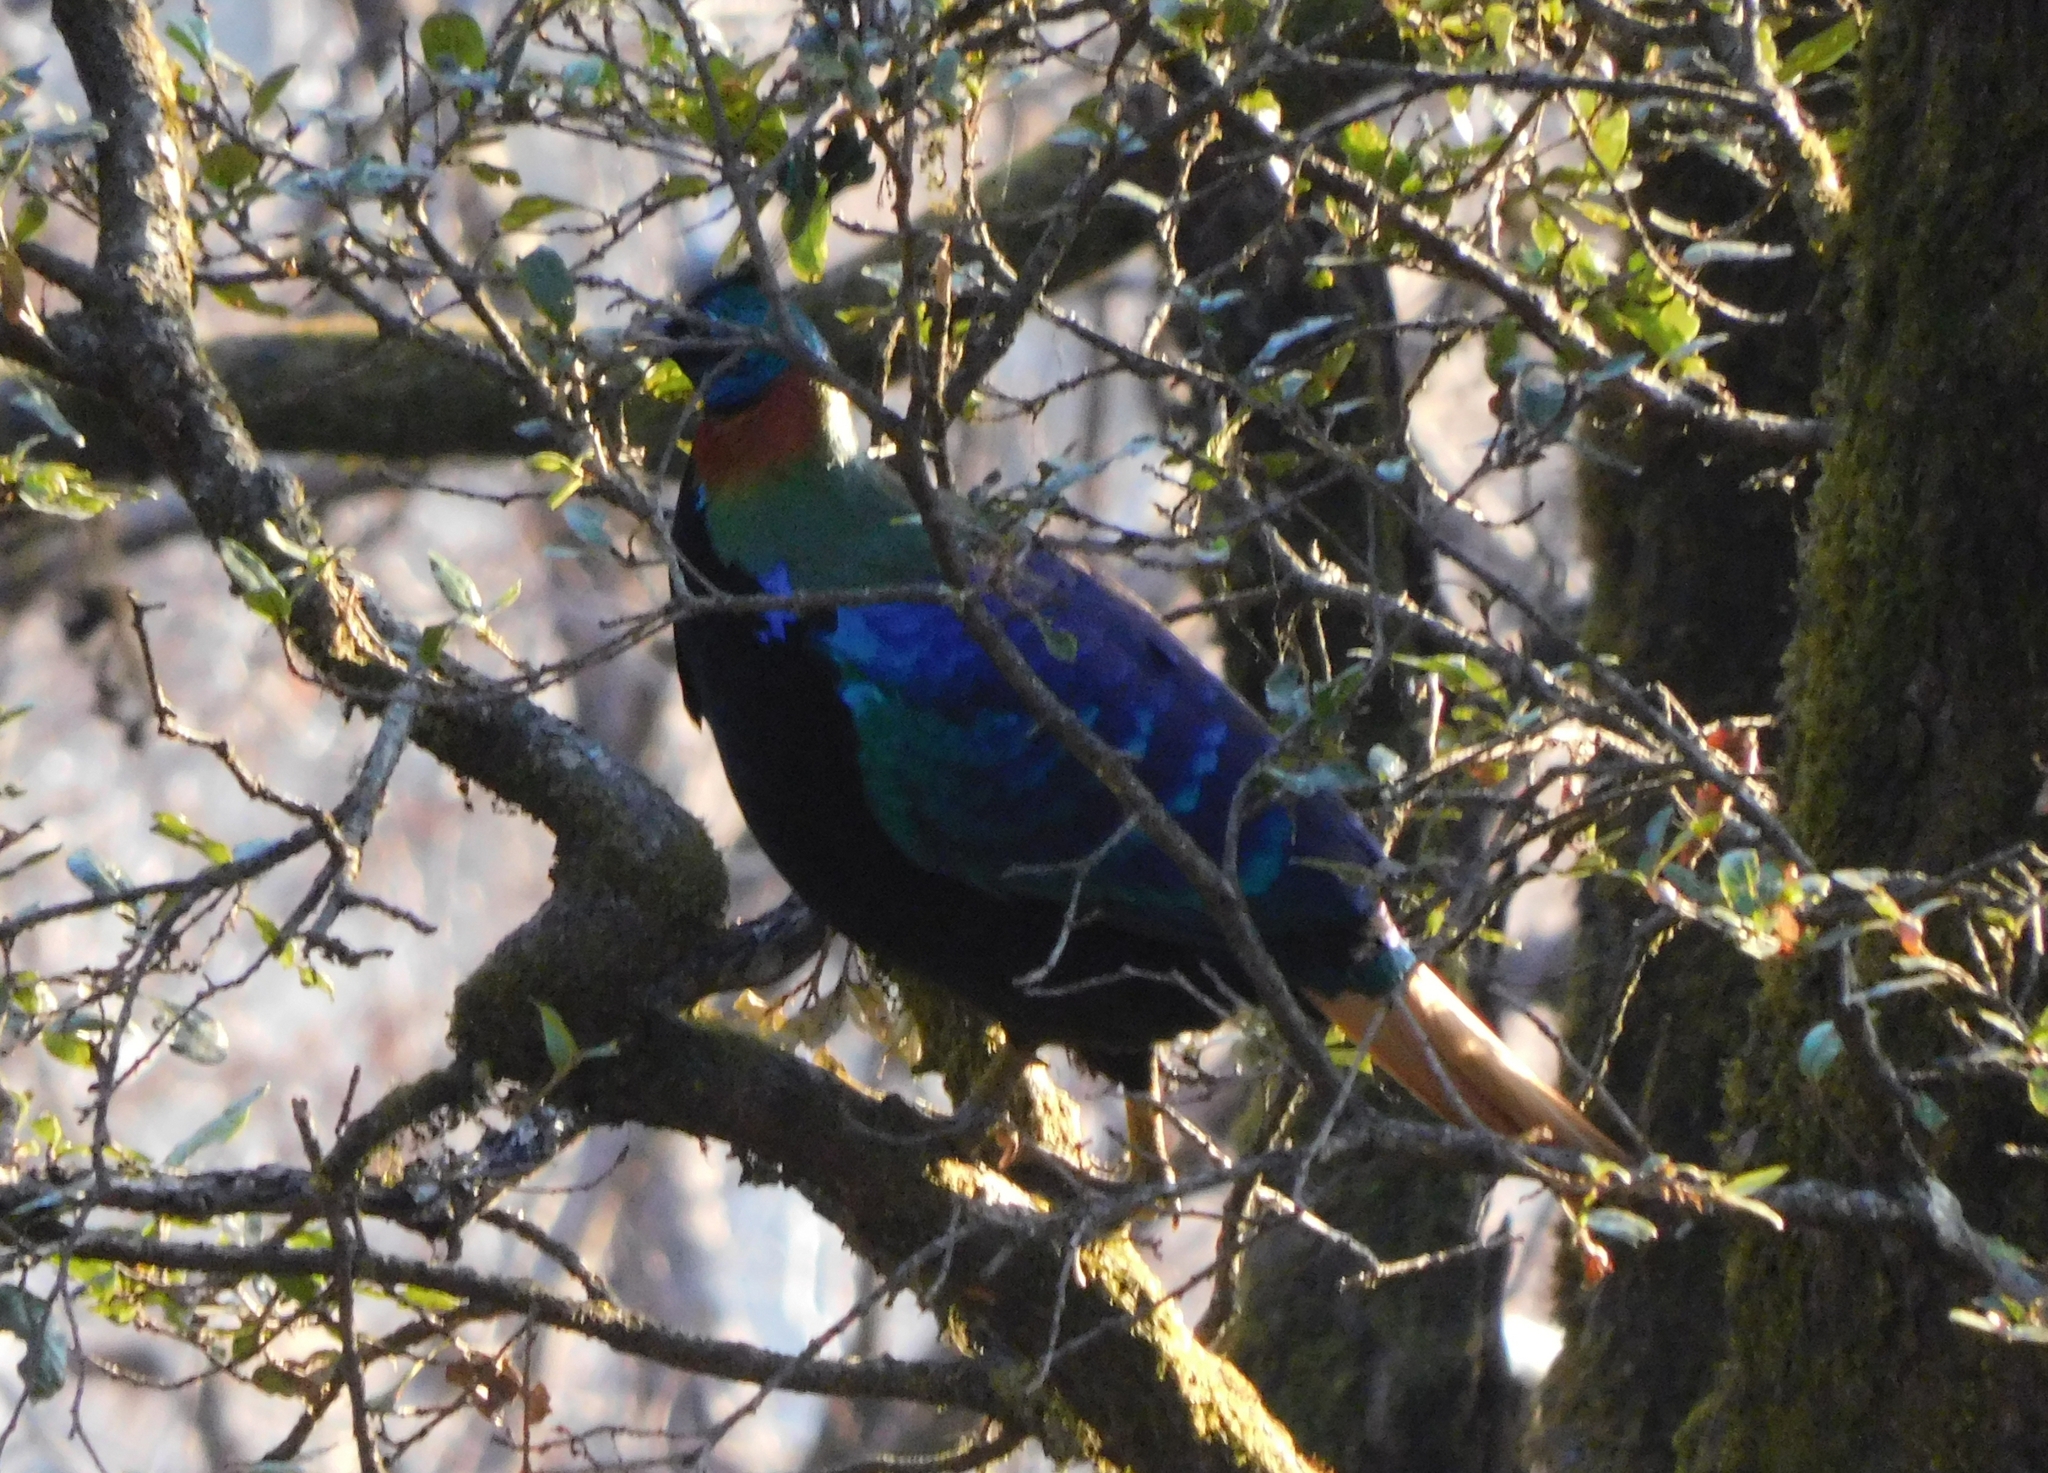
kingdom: Animalia
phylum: Chordata
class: Aves
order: Galliformes
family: Phasianidae
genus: Lophophorus
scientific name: Lophophorus impejanus
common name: Himalayan monal
